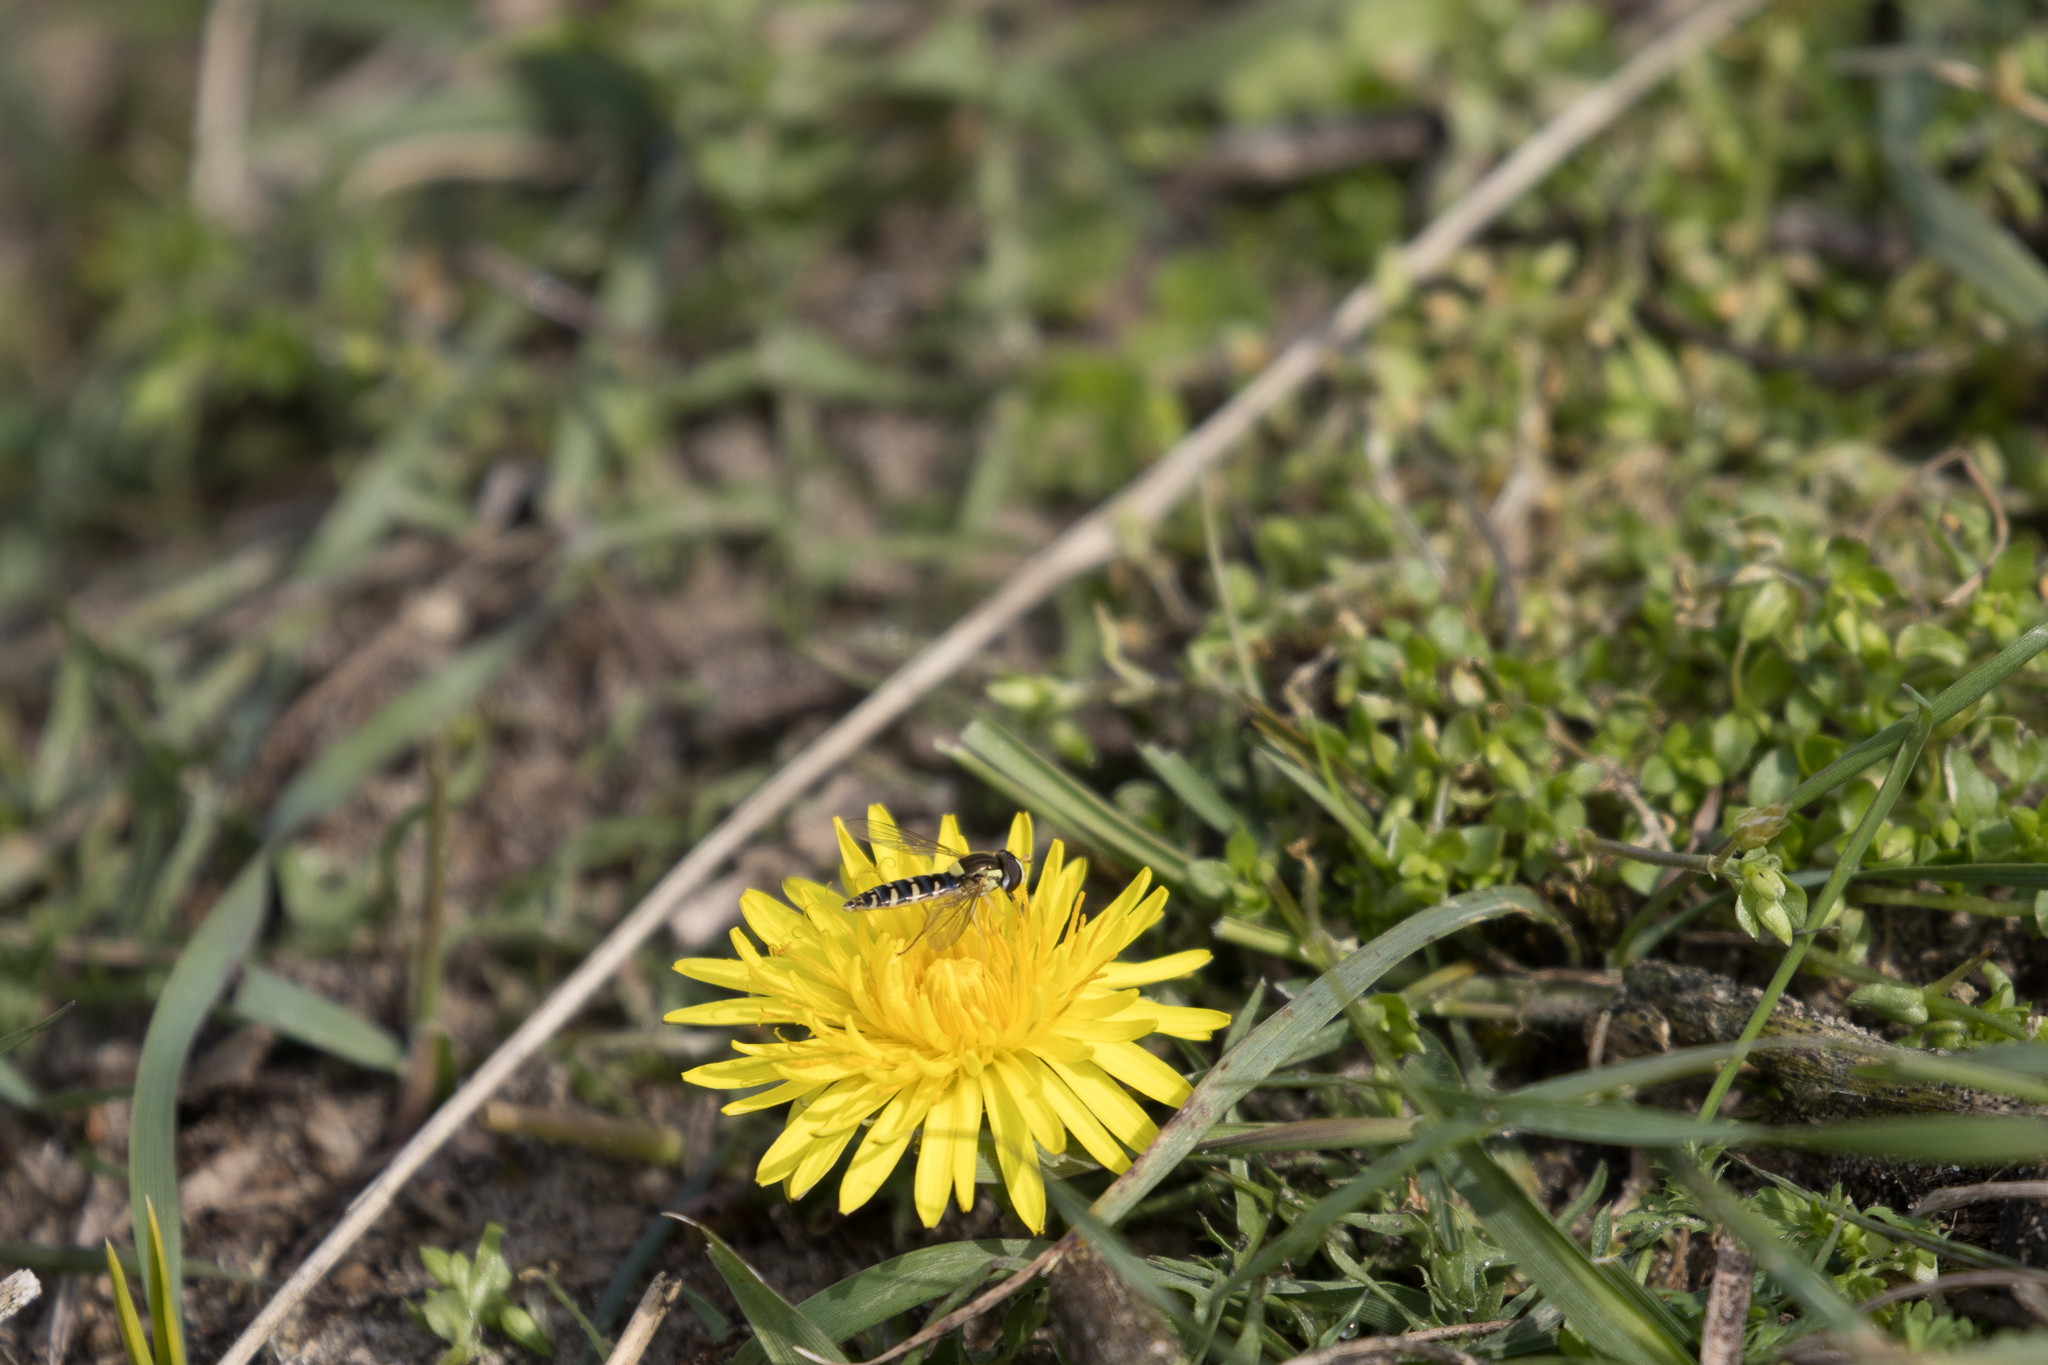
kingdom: Animalia
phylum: Arthropoda
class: Insecta
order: Diptera
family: Syrphidae
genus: Sphaerophoria
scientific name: Sphaerophoria
